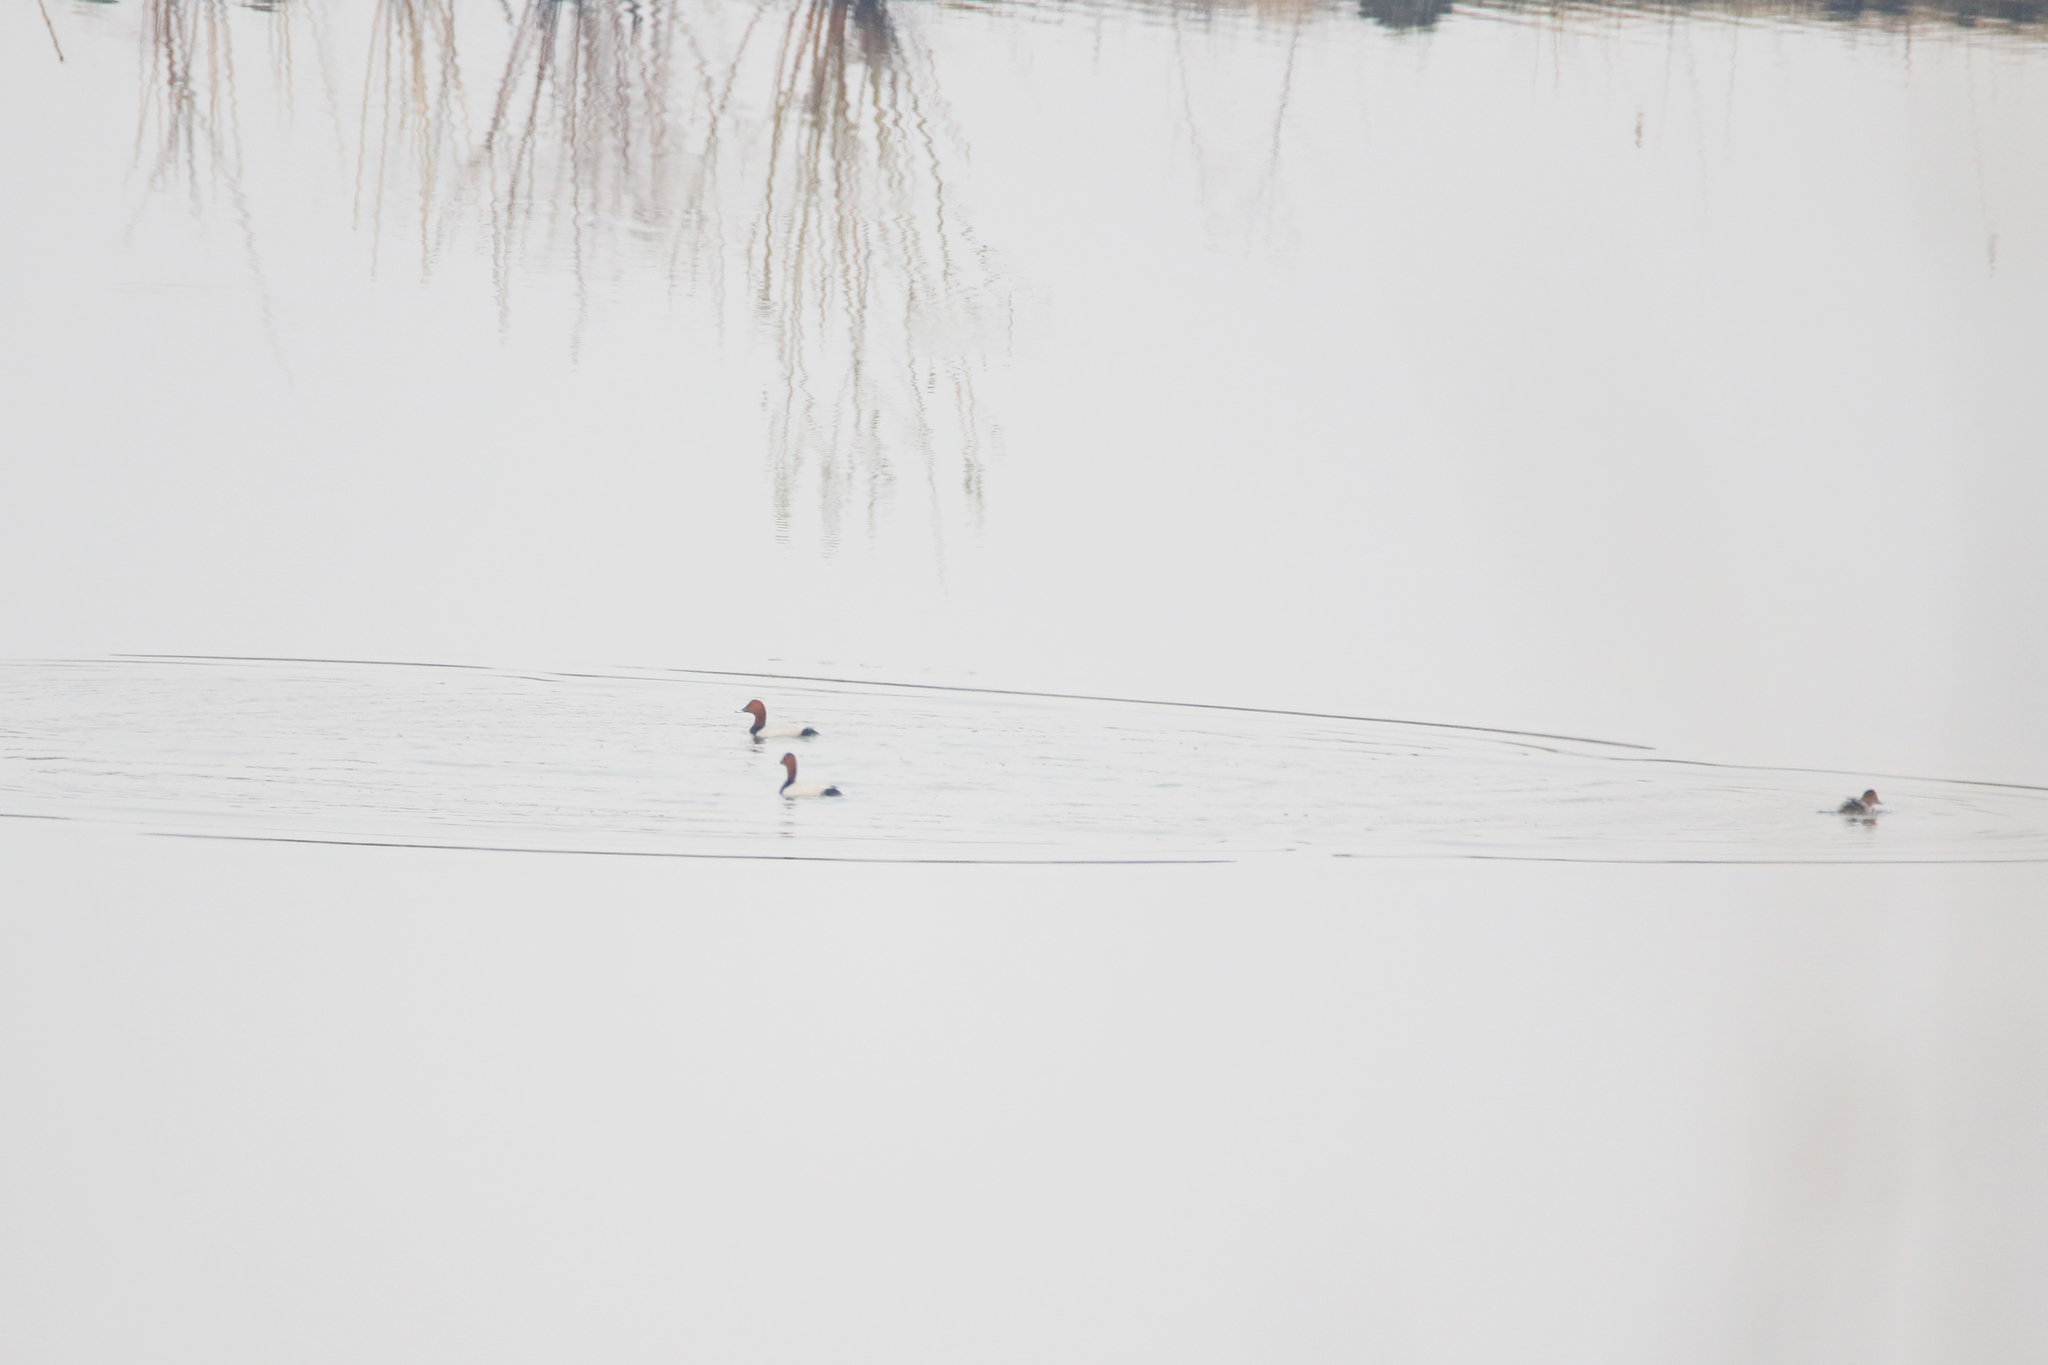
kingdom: Animalia
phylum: Chordata
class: Aves
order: Anseriformes
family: Anatidae
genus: Anas
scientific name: Anas acuta
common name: Northern pintail
